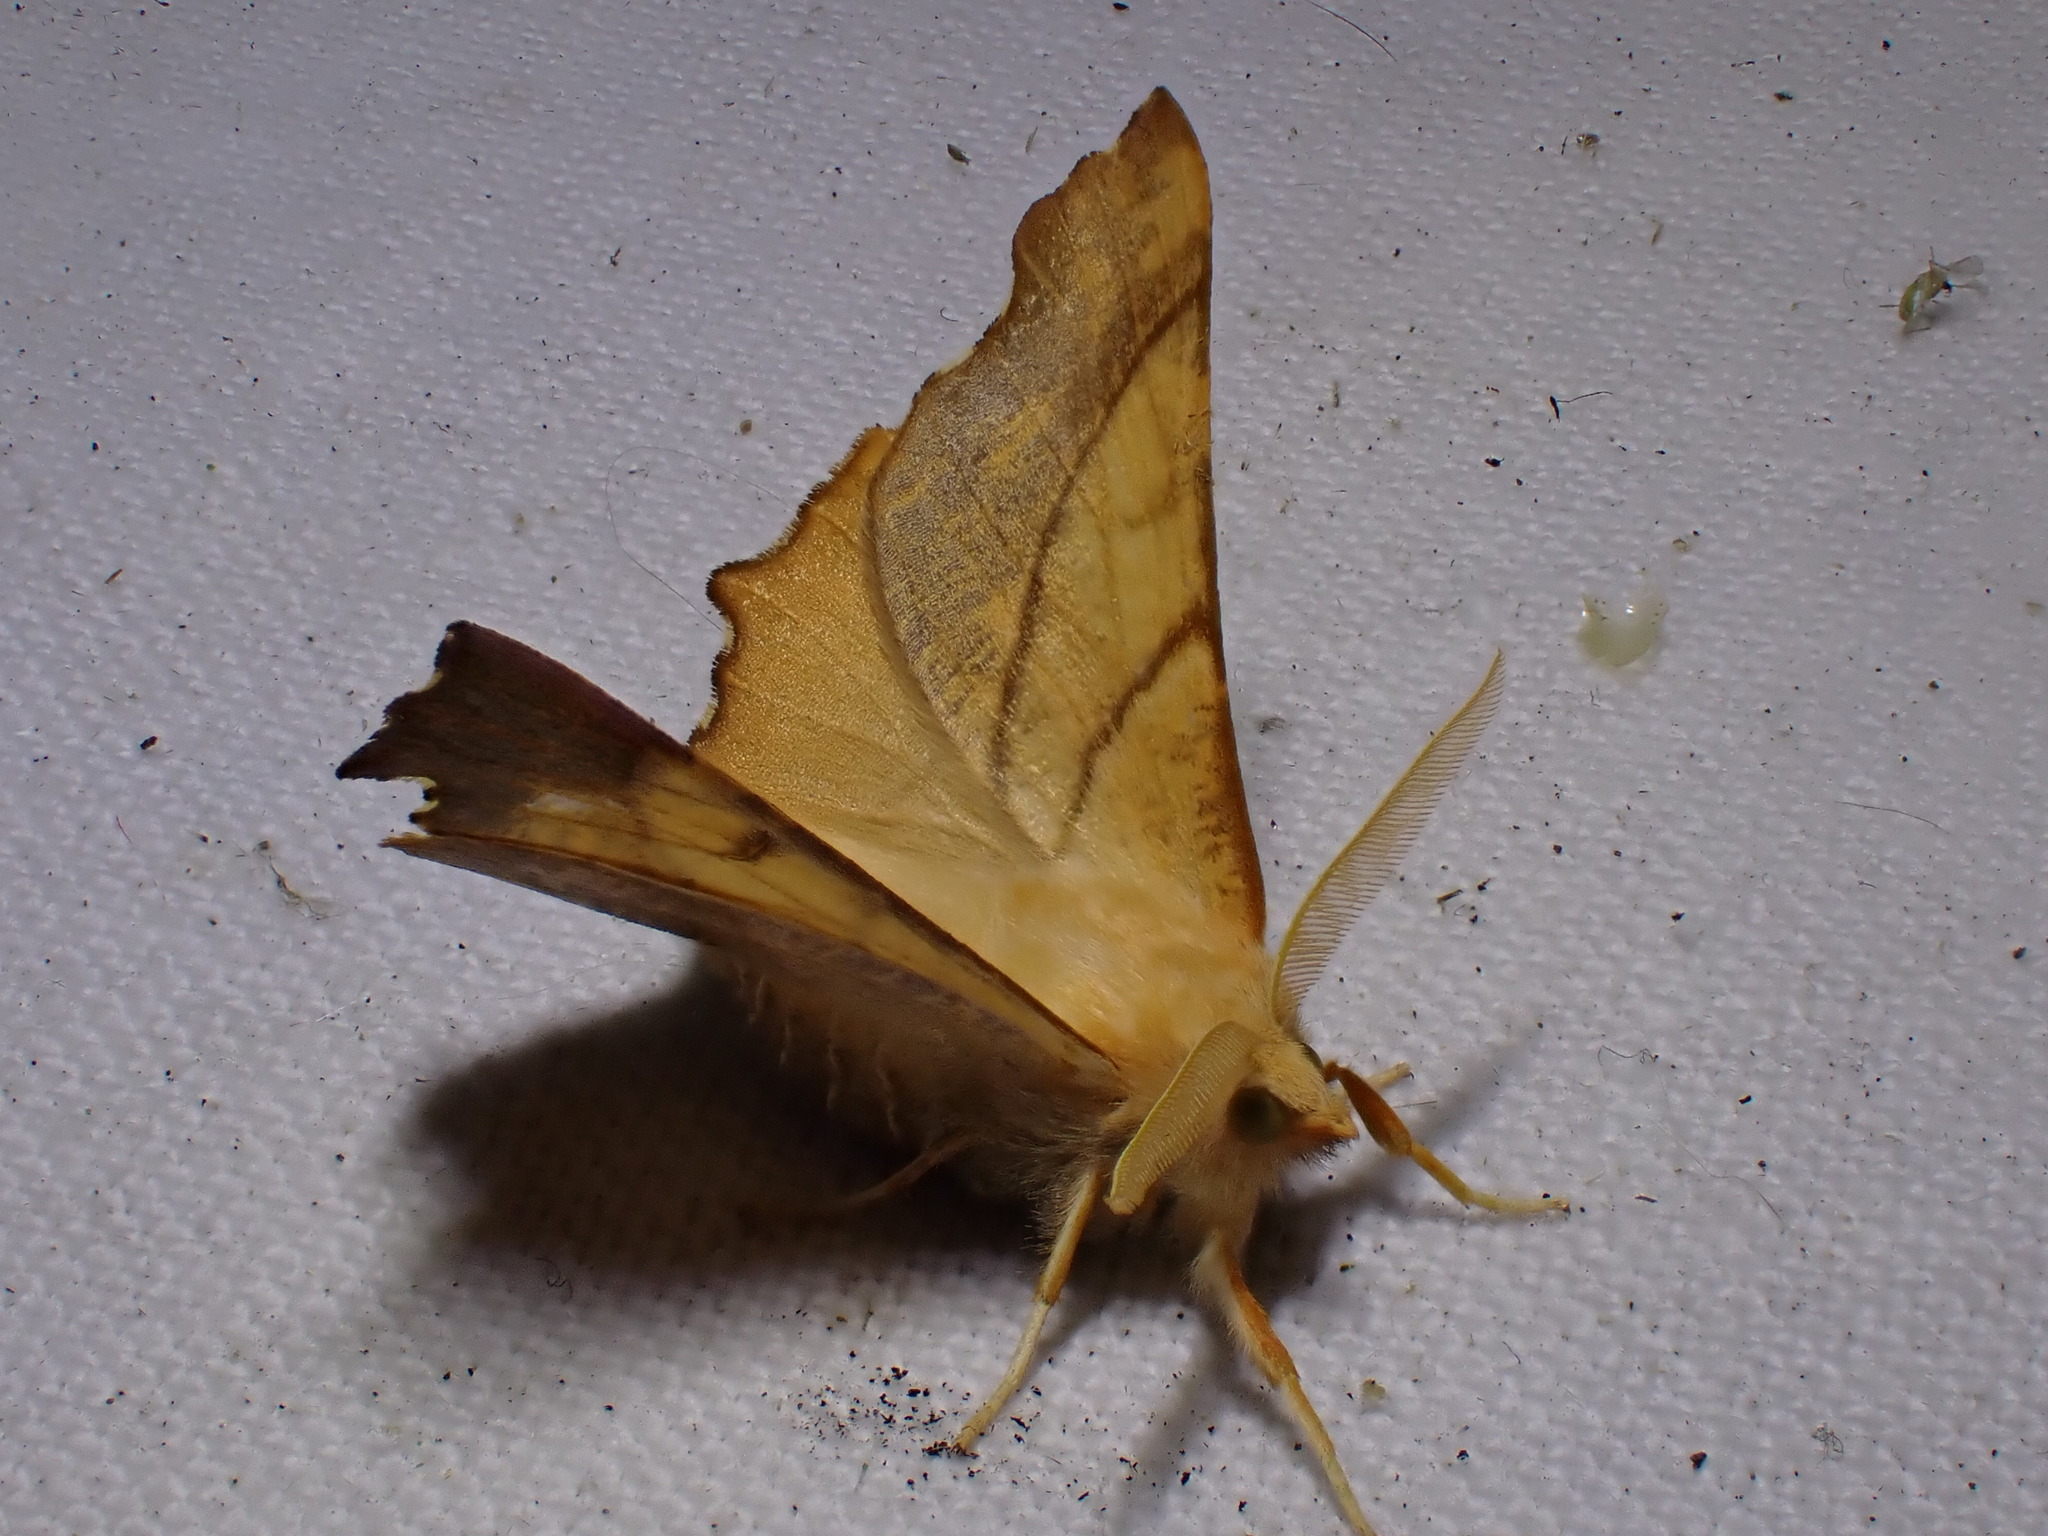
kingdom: Animalia
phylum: Arthropoda
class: Insecta
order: Lepidoptera
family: Geometridae
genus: Ennomos
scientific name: Ennomos fuscantaria
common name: Dusky thorn
